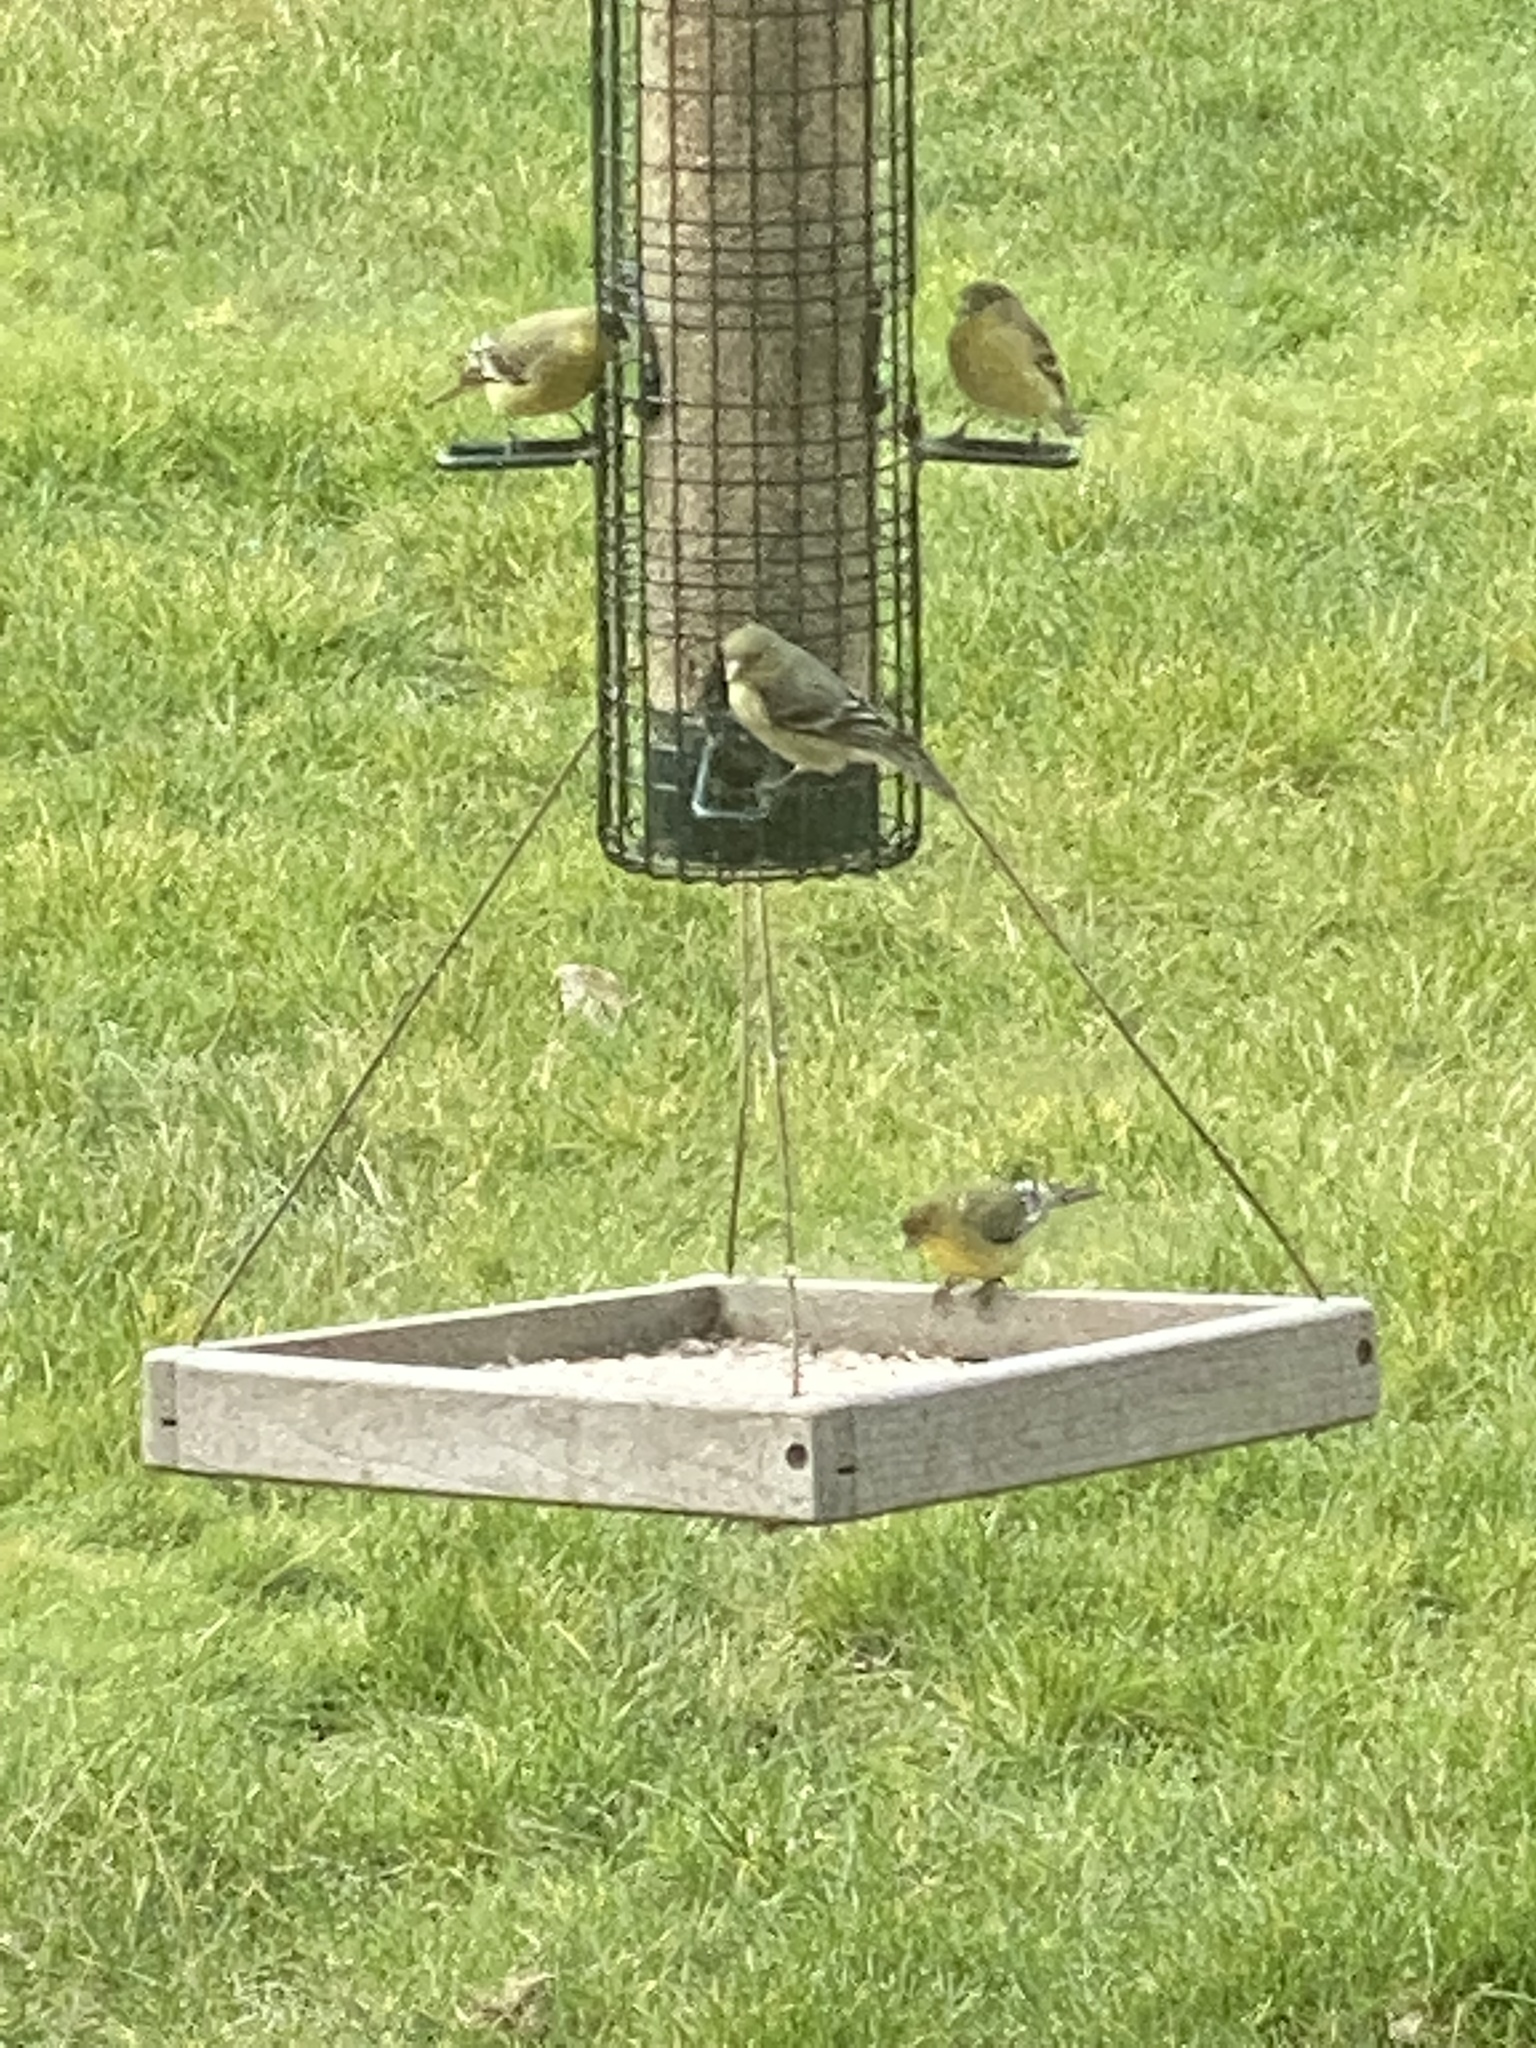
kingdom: Animalia
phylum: Chordata
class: Aves
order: Passeriformes
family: Fringillidae
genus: Spinus
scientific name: Spinus psaltria
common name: Lesser goldfinch
